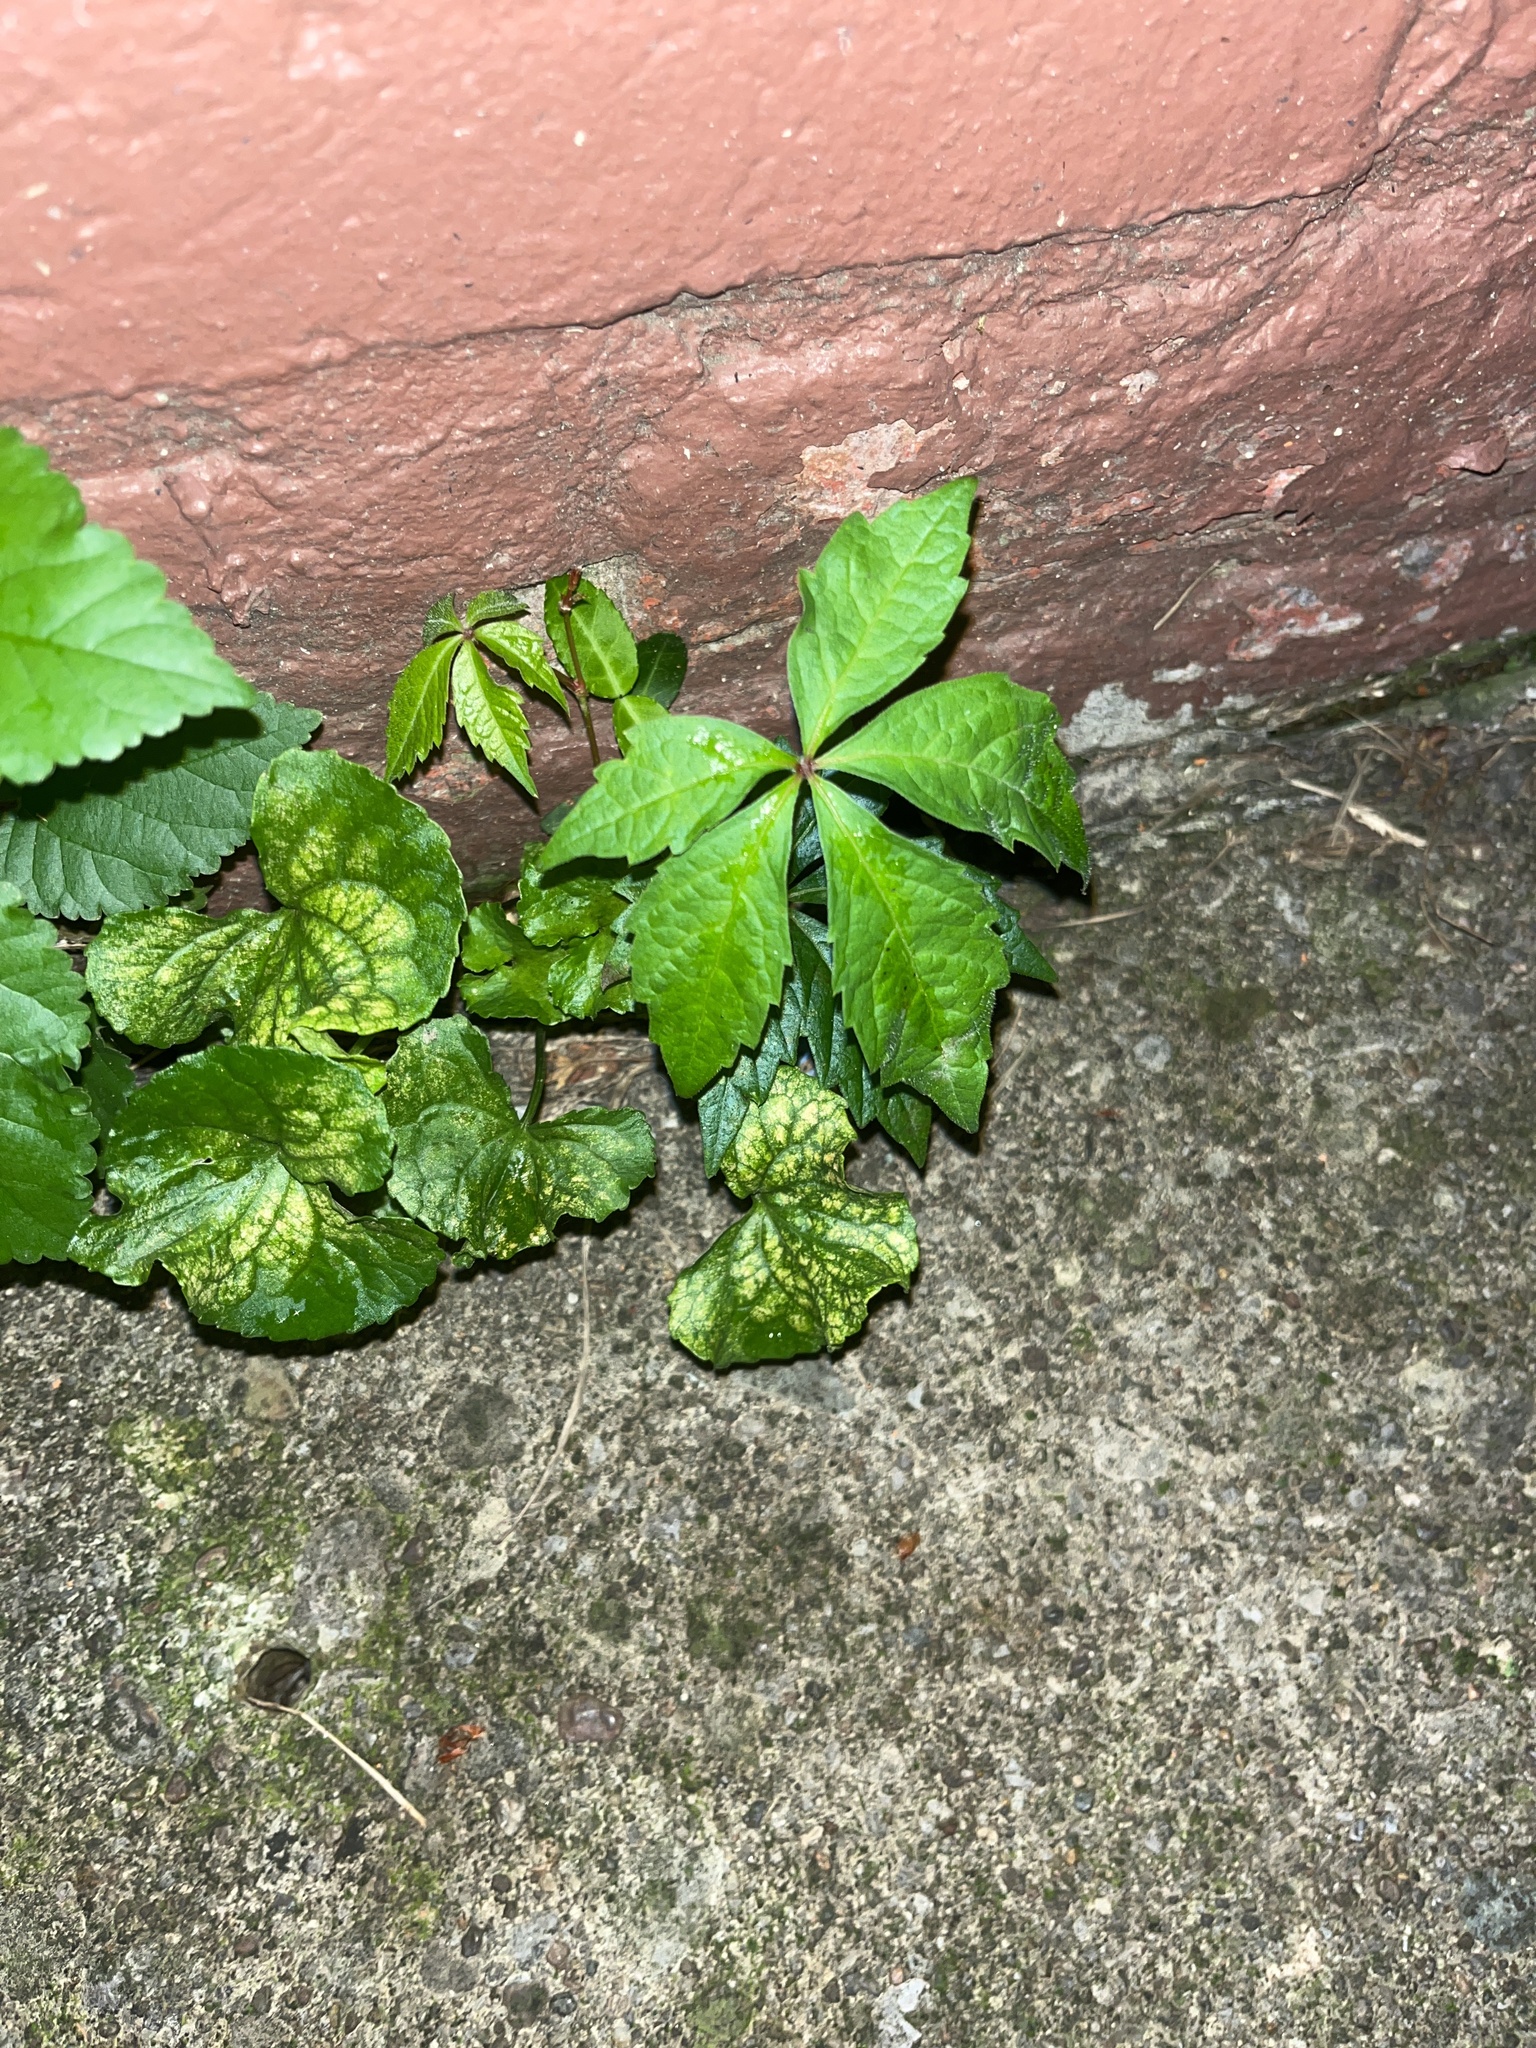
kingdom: Plantae
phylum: Tracheophyta
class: Magnoliopsida
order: Vitales
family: Vitaceae
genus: Parthenocissus
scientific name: Parthenocissus quinquefolia
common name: Virginia-creeper
